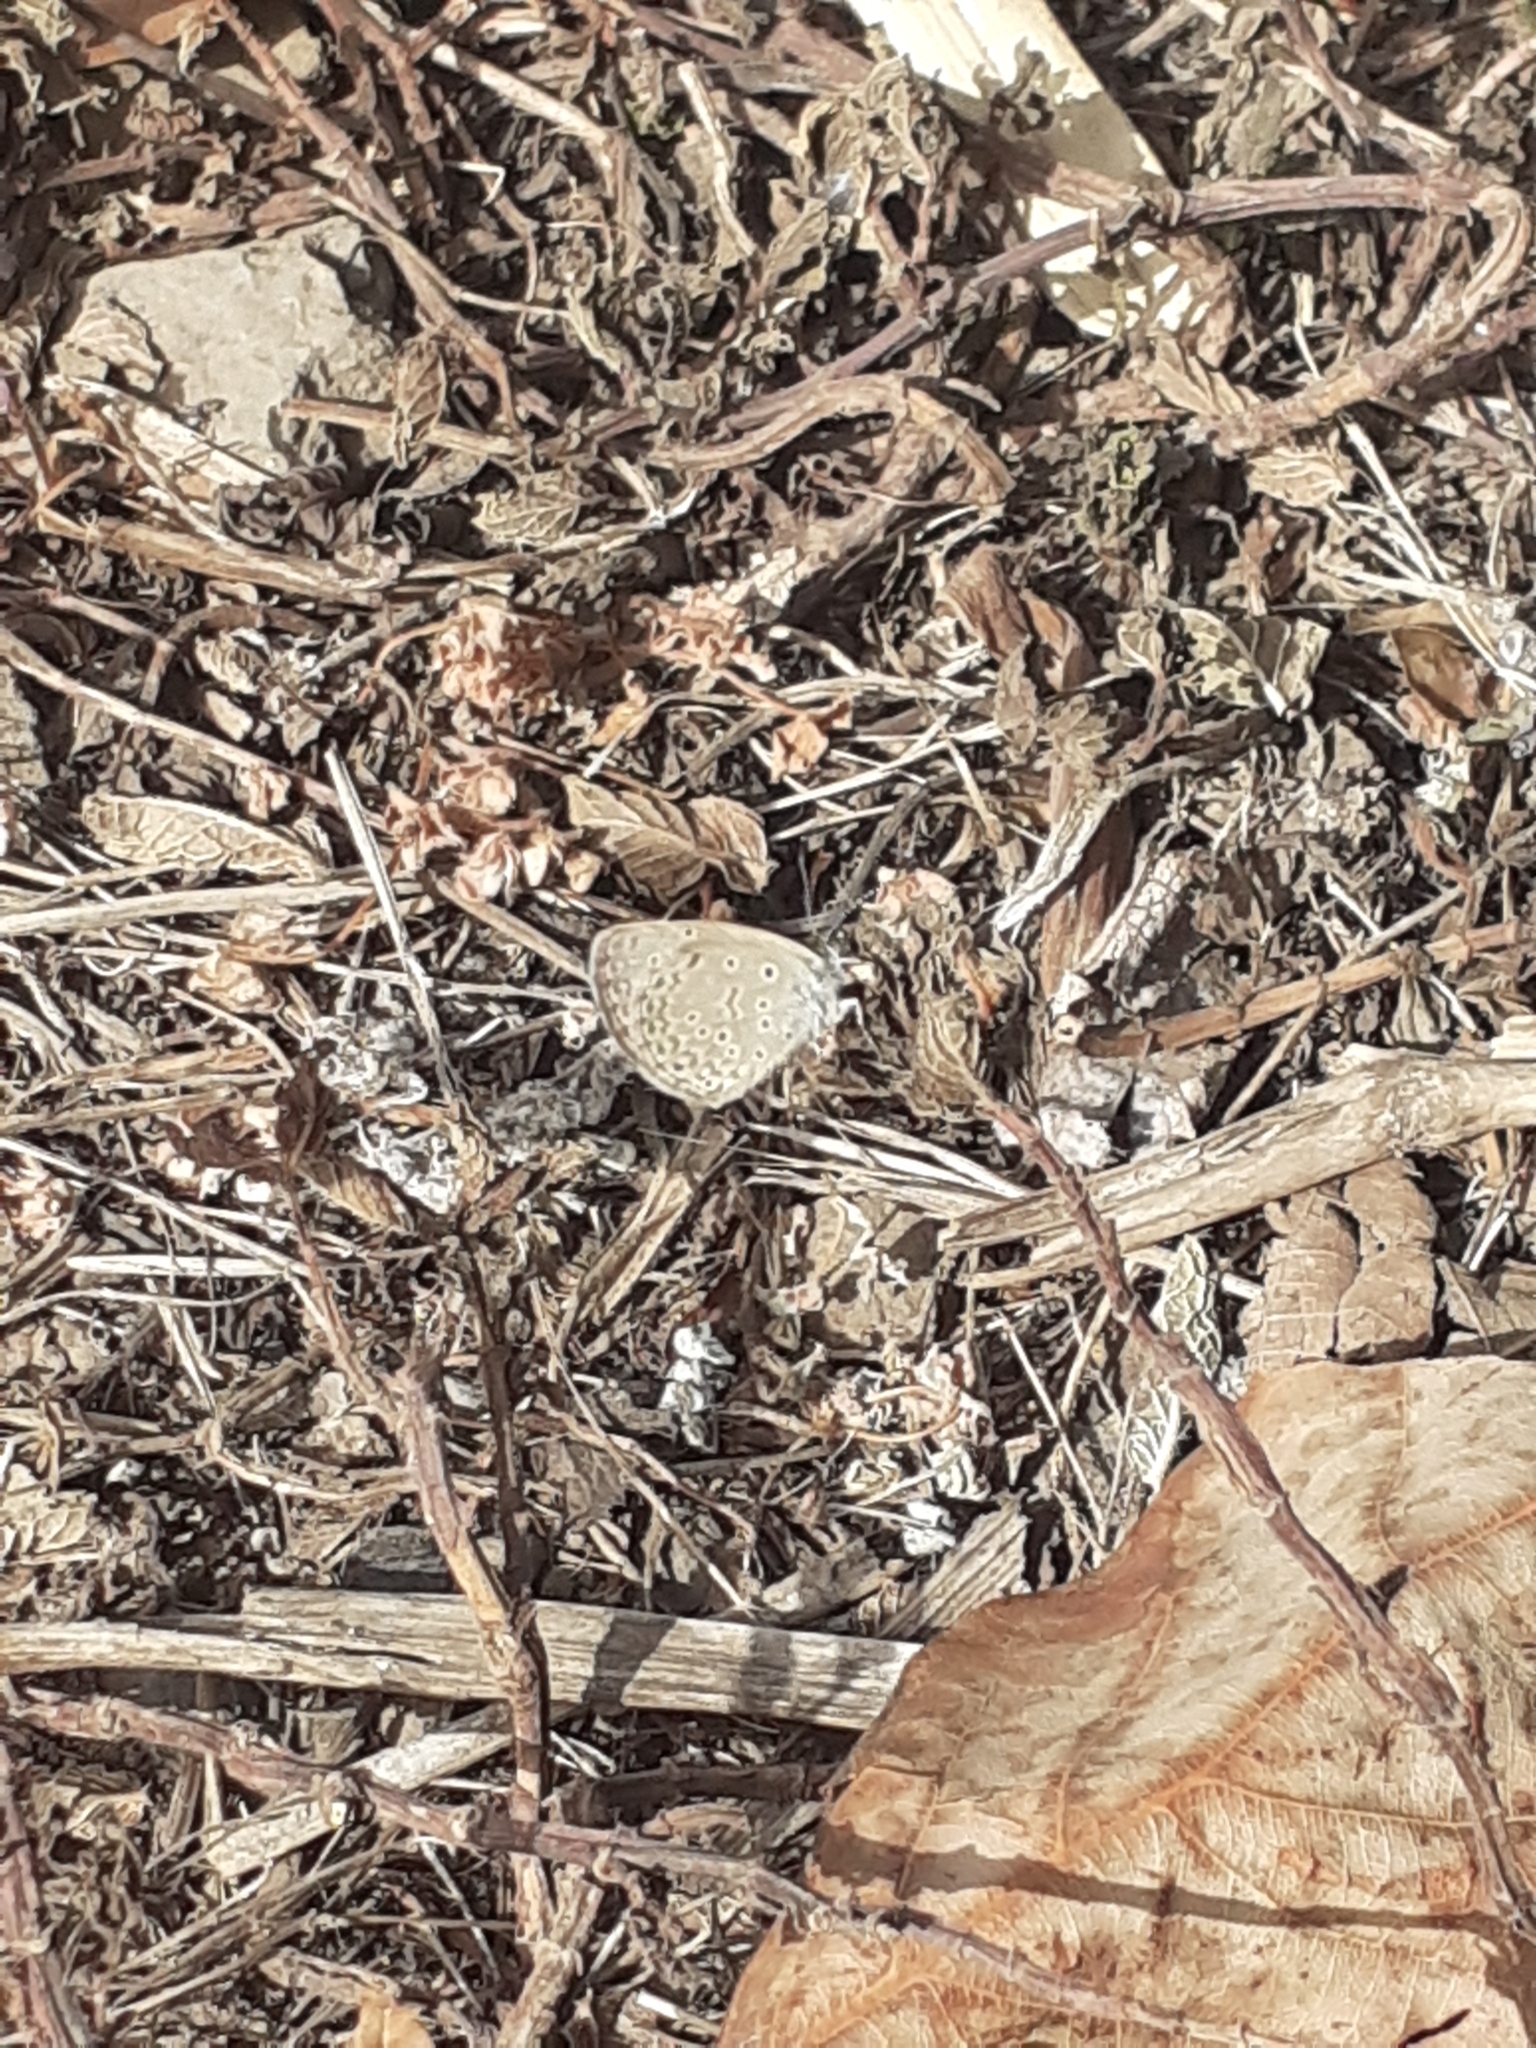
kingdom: Animalia
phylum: Arthropoda
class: Insecta
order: Lepidoptera
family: Lycaenidae
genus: Zizeeria
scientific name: Zizeeria knysna
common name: African grass blue
